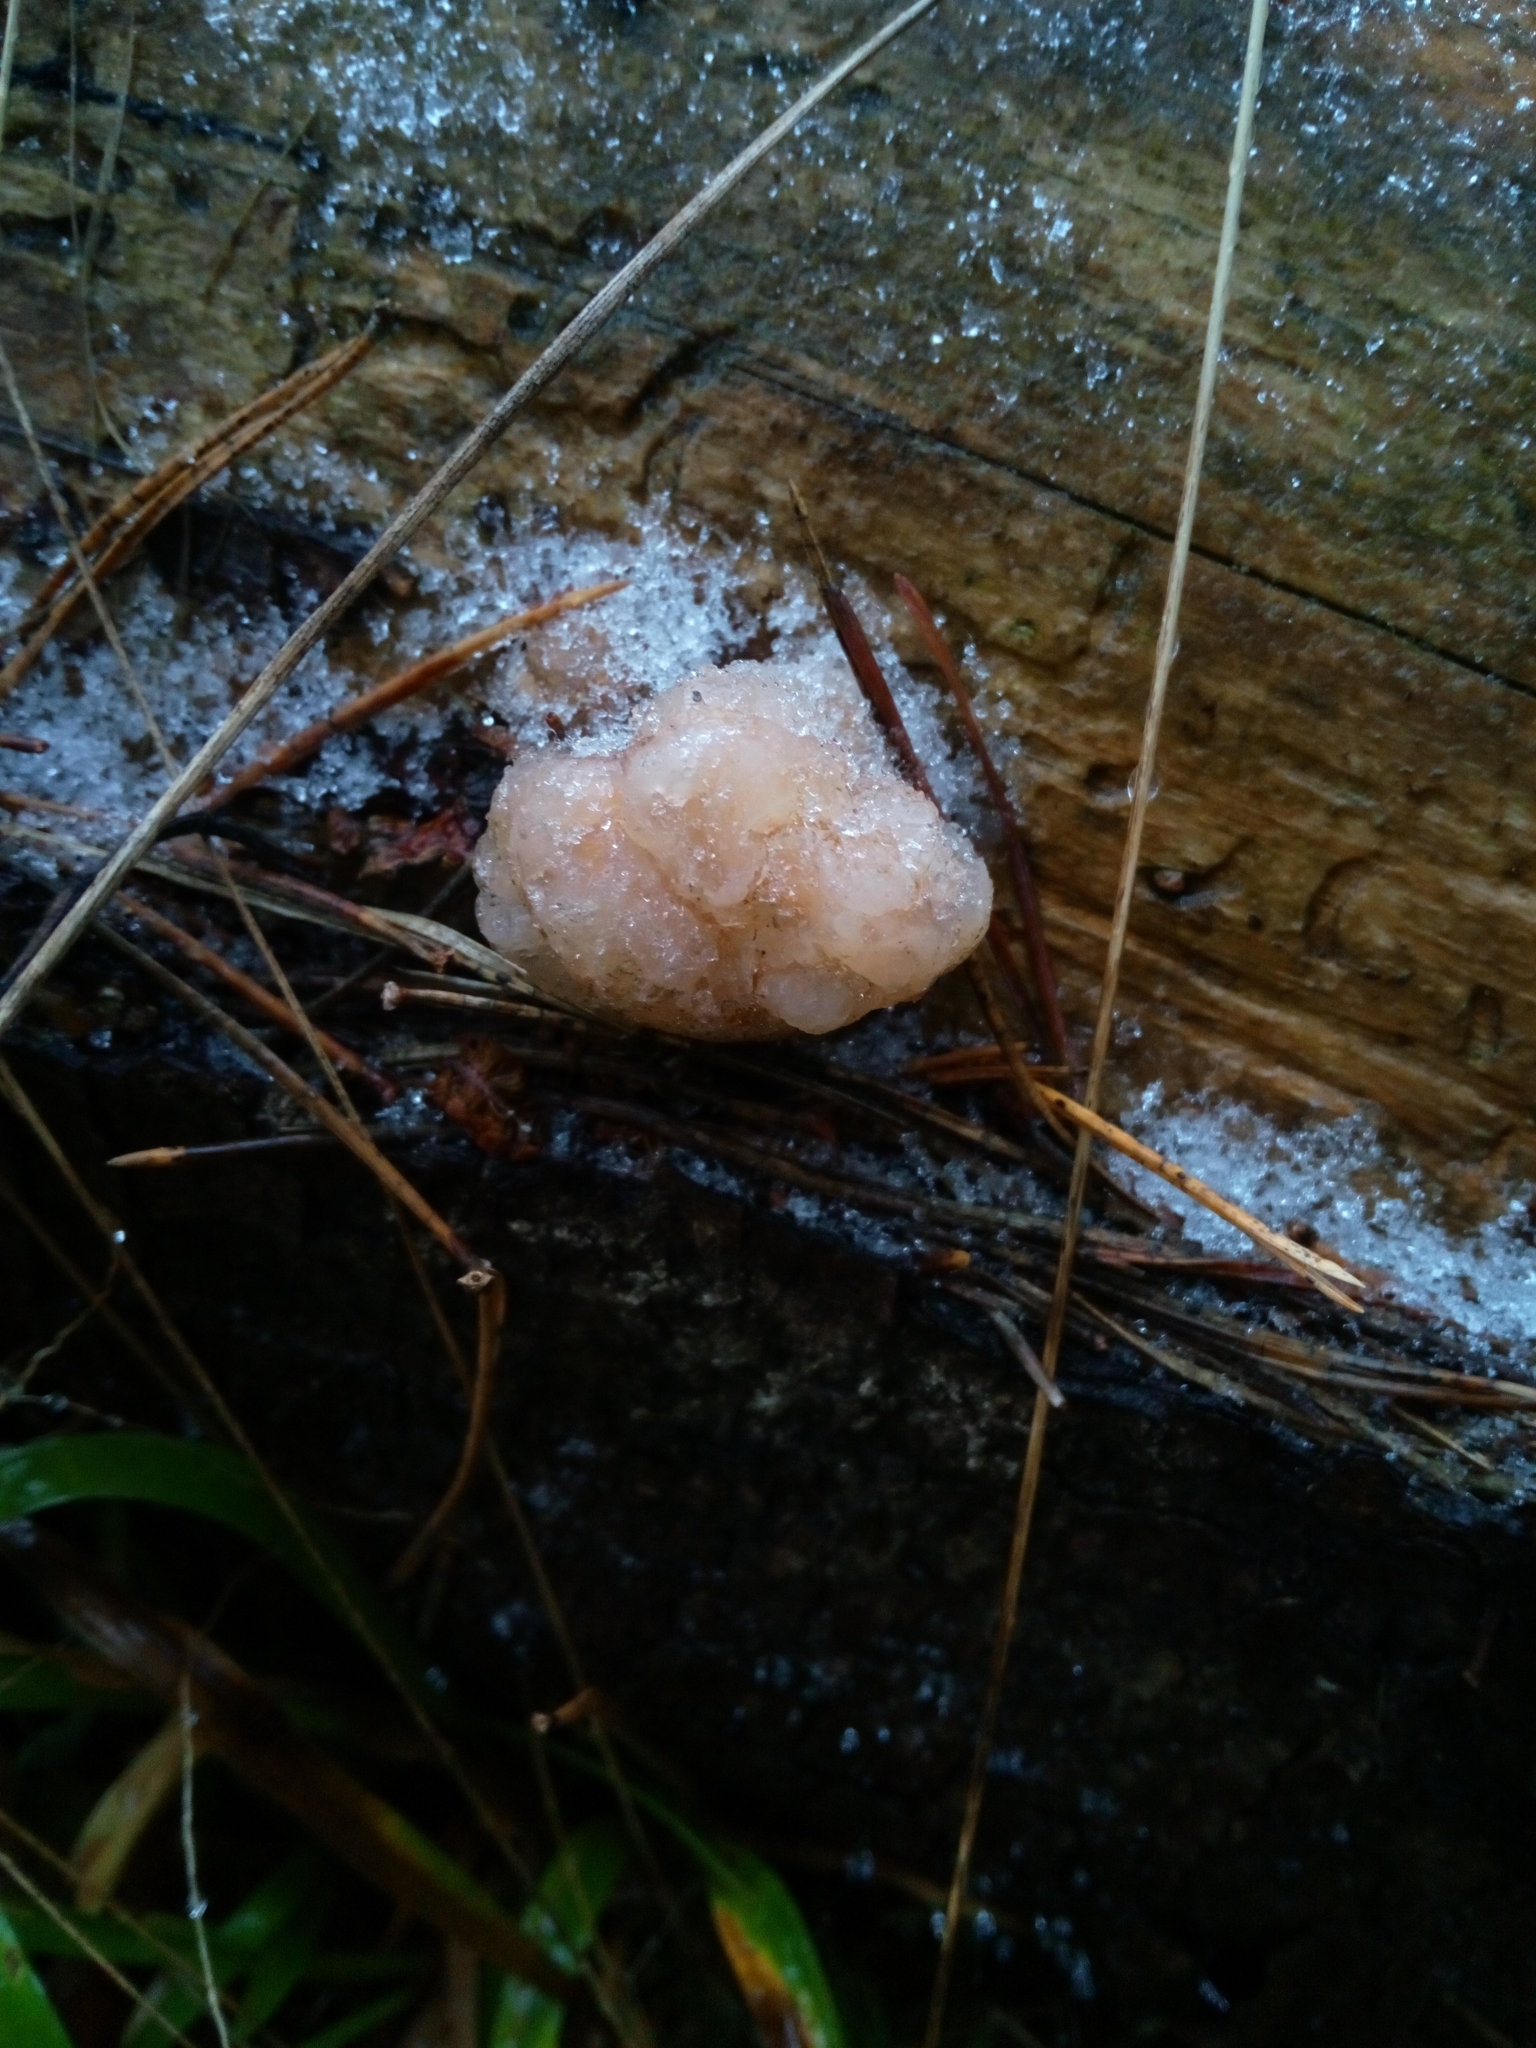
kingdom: Fungi
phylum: Basidiomycota
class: Tremellomycetes
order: Tremellales
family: Naemateliaceae
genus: Naematelia
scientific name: Naematelia encephala
